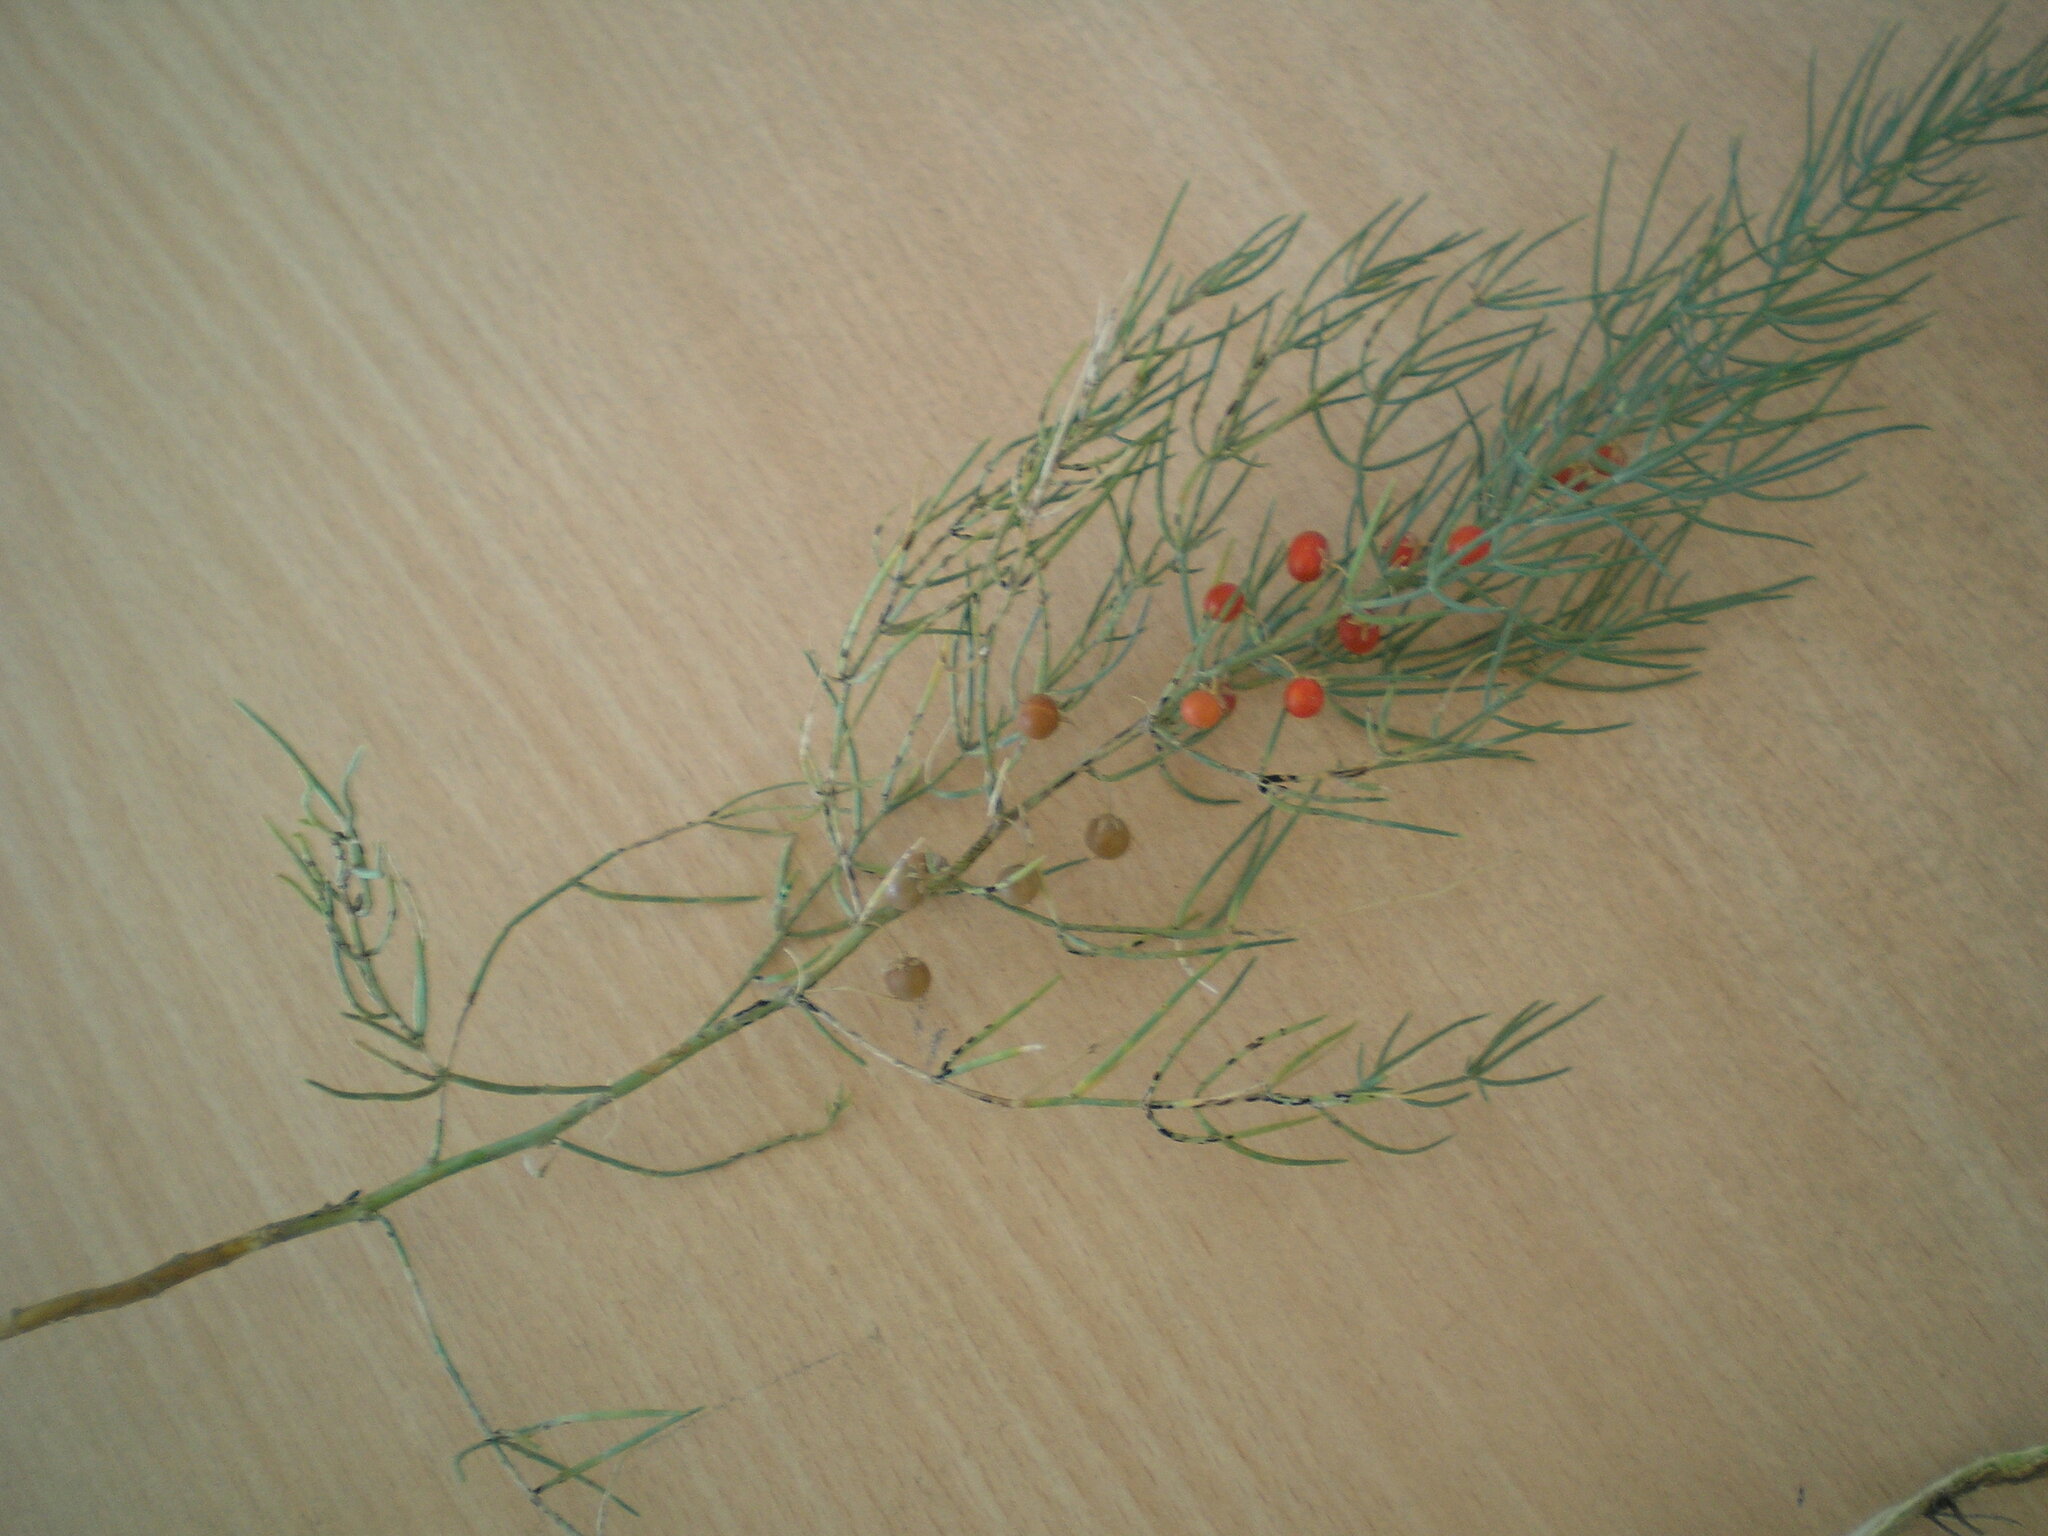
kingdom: Plantae
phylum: Tracheophyta
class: Liliopsida
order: Asparagales
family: Asparagaceae
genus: Asparagus
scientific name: Asparagus officinalis
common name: Garden asparagus
